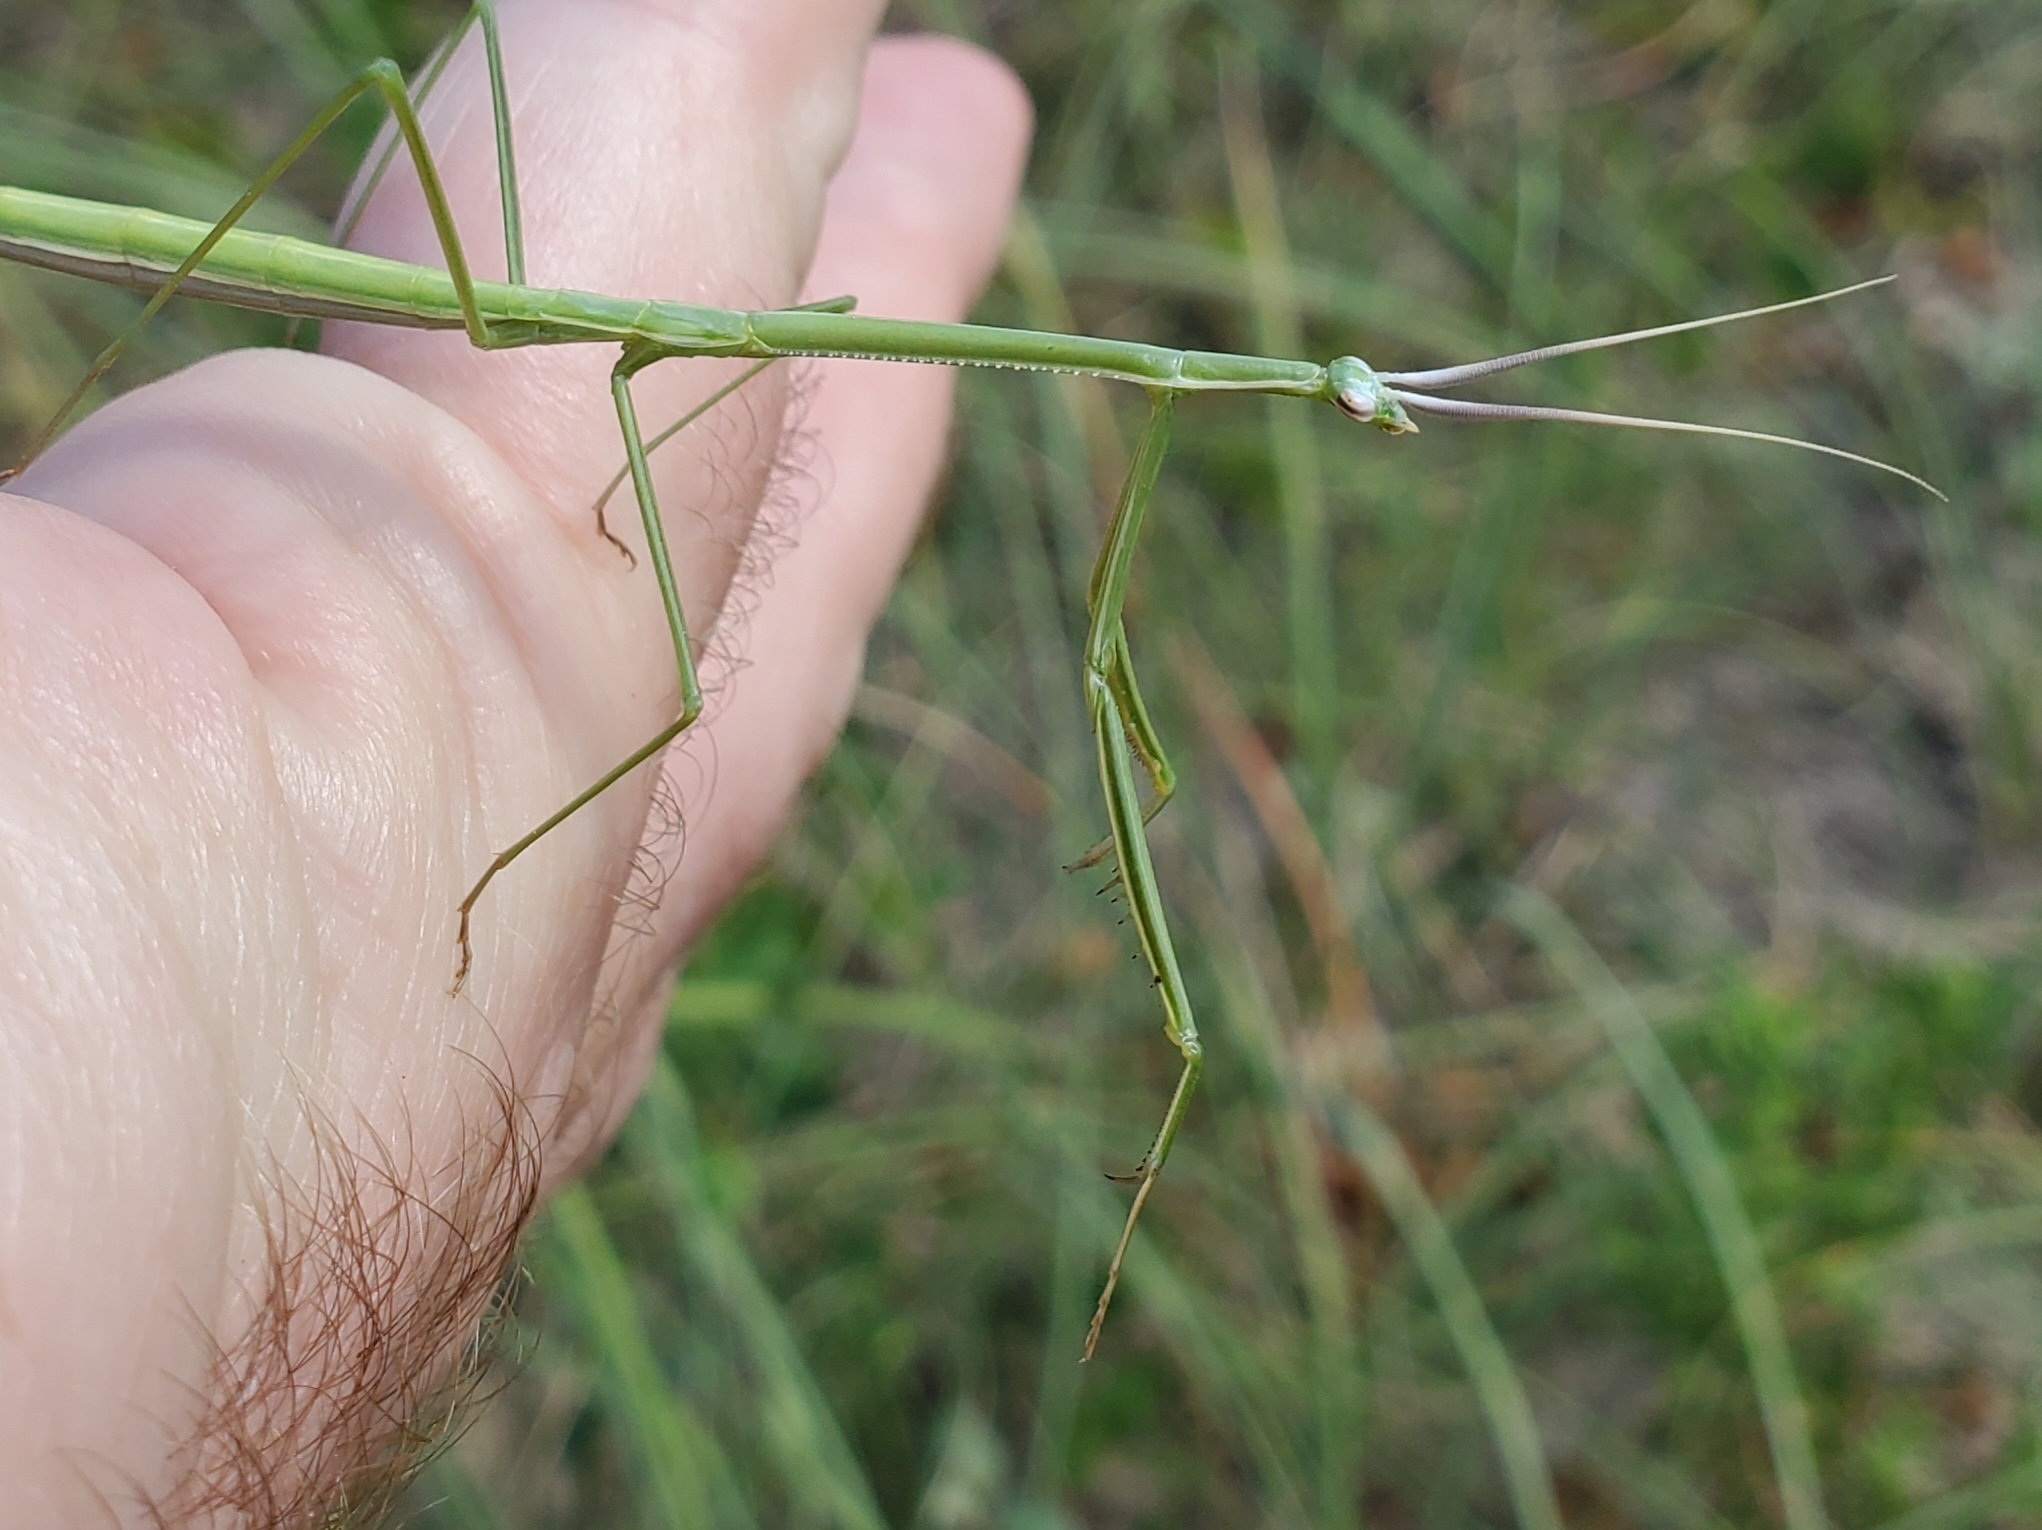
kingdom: Animalia
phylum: Arthropoda
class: Insecta
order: Mantodea
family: Coptopterygidae
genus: Brunneria
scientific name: Brunneria borealis
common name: Mantis
